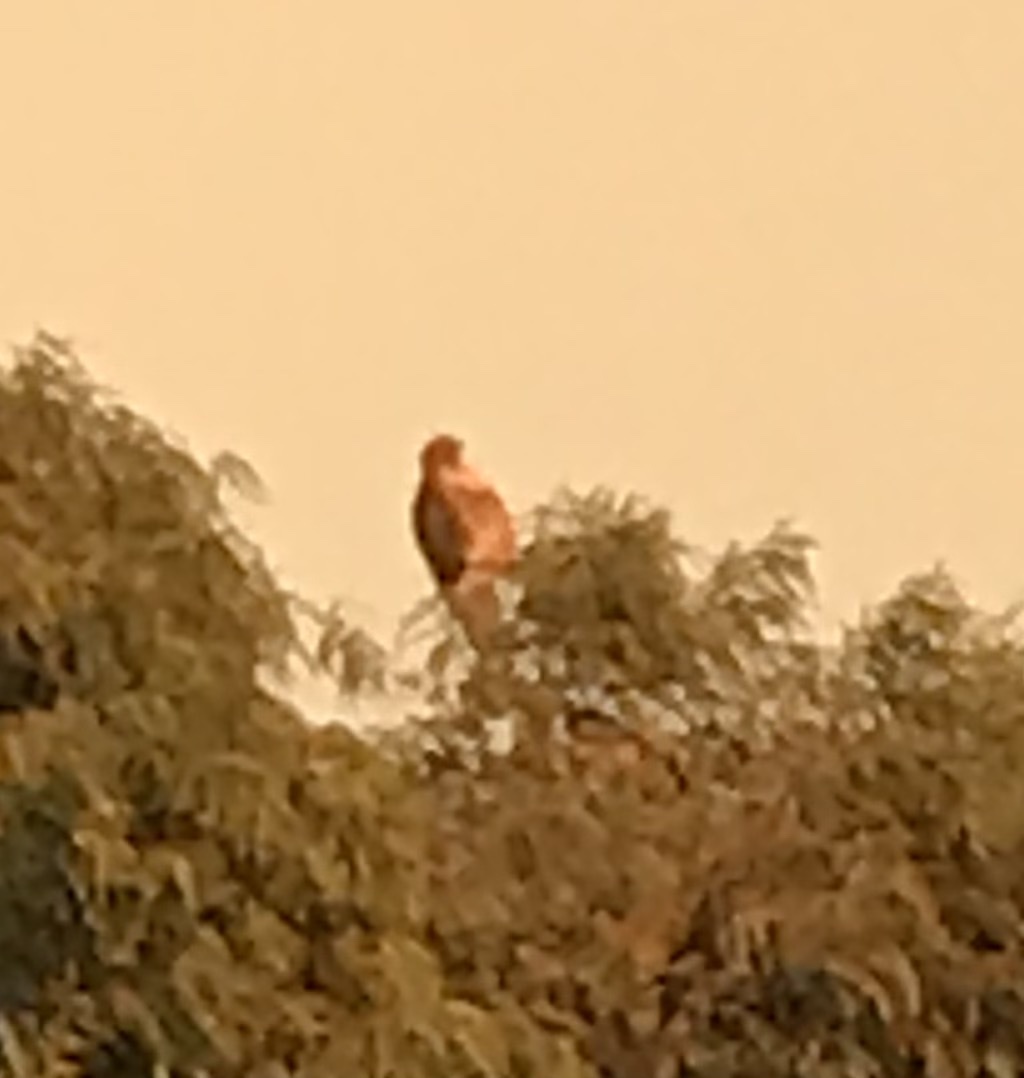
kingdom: Animalia
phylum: Chordata
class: Aves
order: Accipitriformes
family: Accipitridae
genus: Buteo
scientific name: Buteo jamaicensis
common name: Red-tailed hawk
